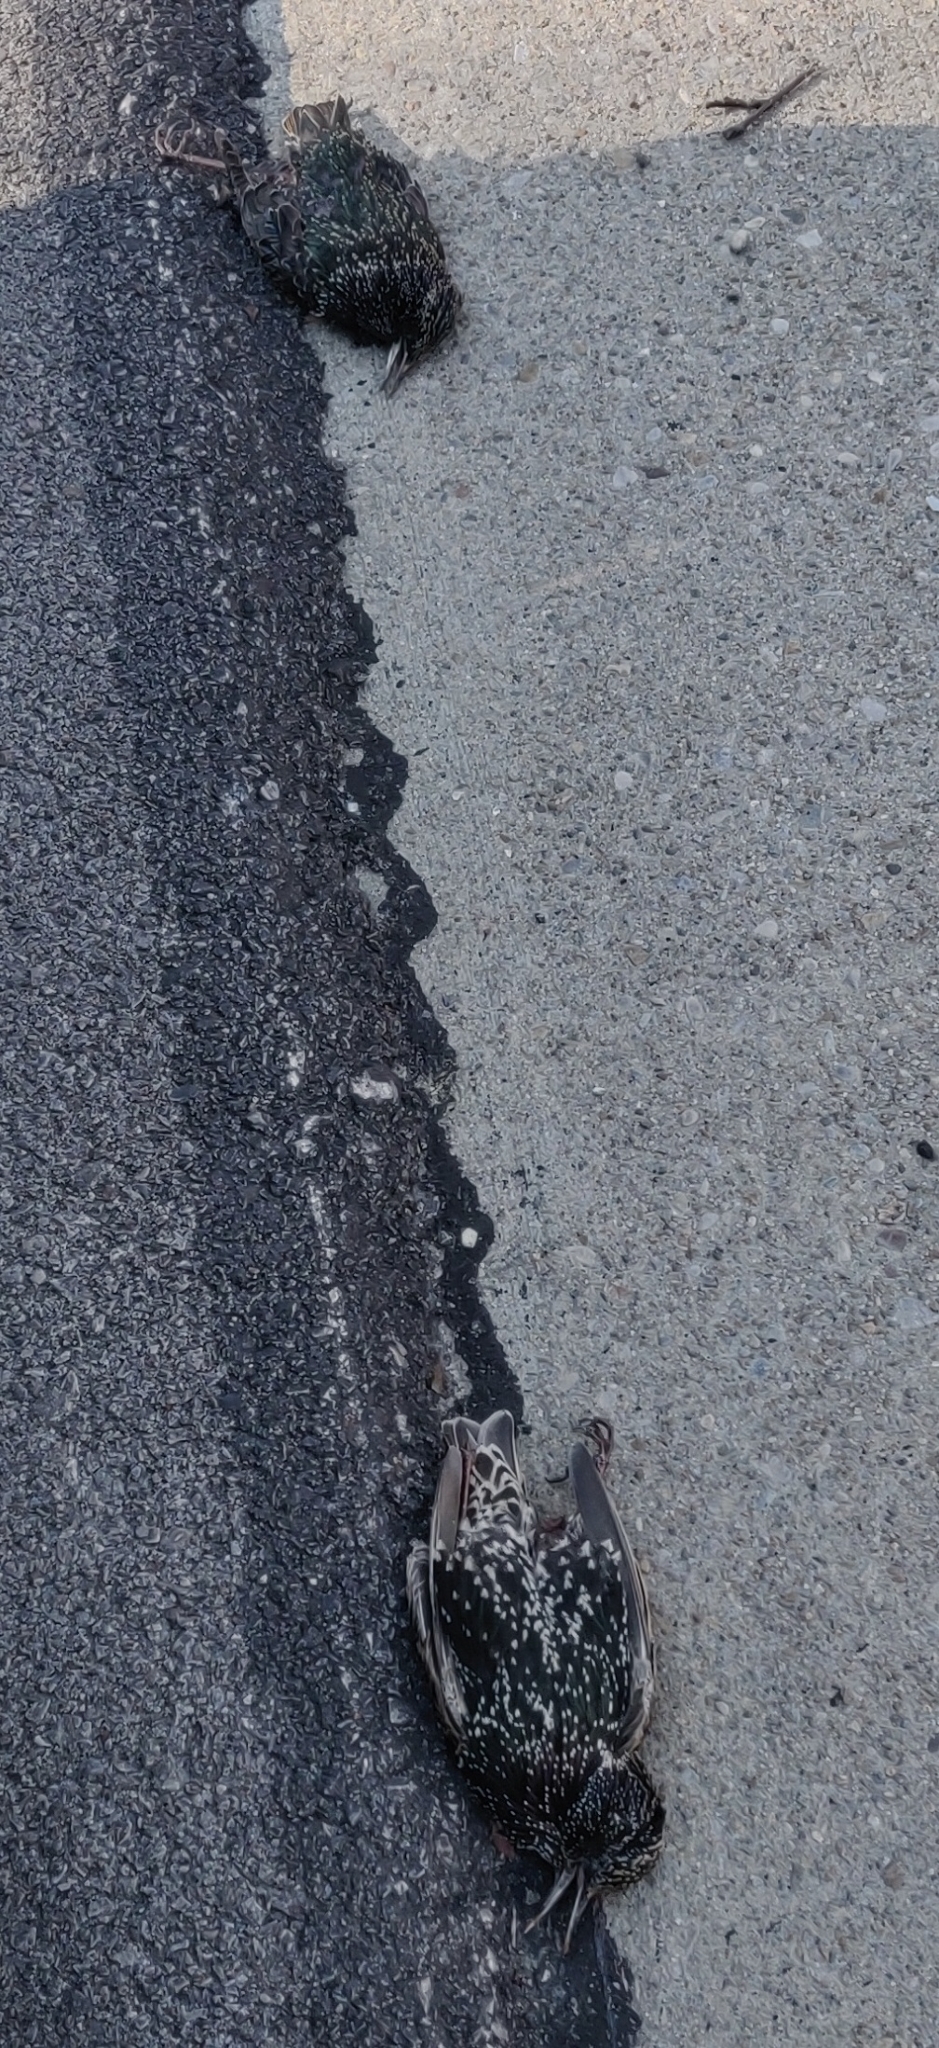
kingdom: Animalia
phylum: Chordata
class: Aves
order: Passeriformes
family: Sturnidae
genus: Sturnus
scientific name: Sturnus vulgaris
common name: Common starling
